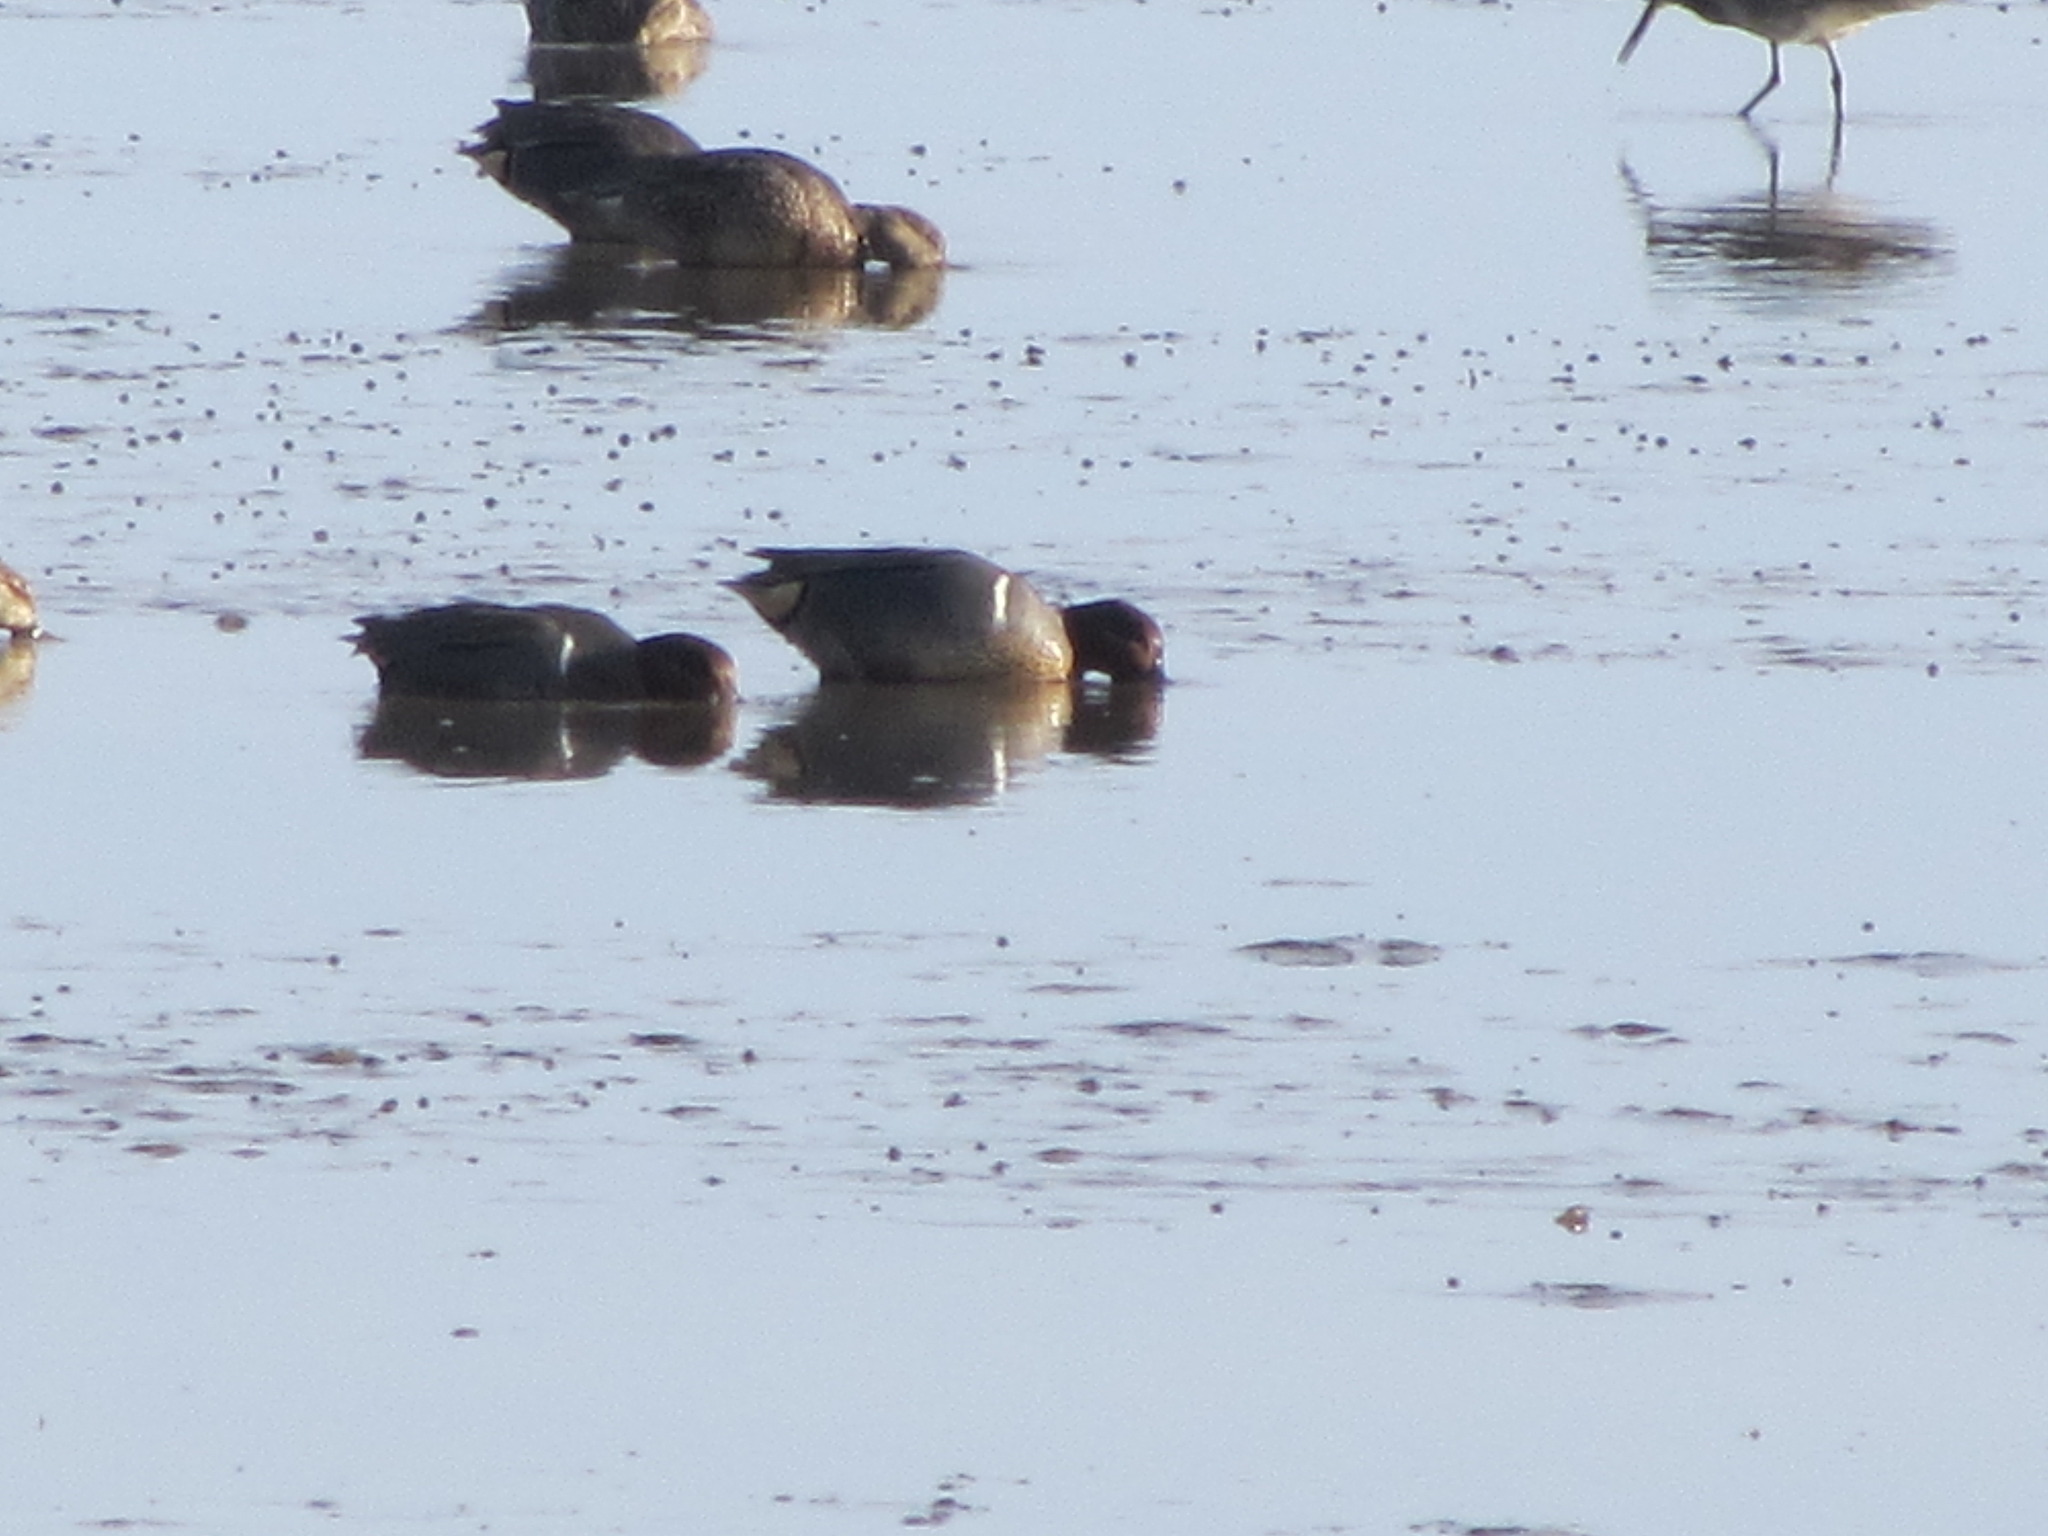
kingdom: Animalia
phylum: Chordata
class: Aves
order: Anseriformes
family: Anatidae
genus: Anas
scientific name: Anas crecca
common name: Eurasian teal
